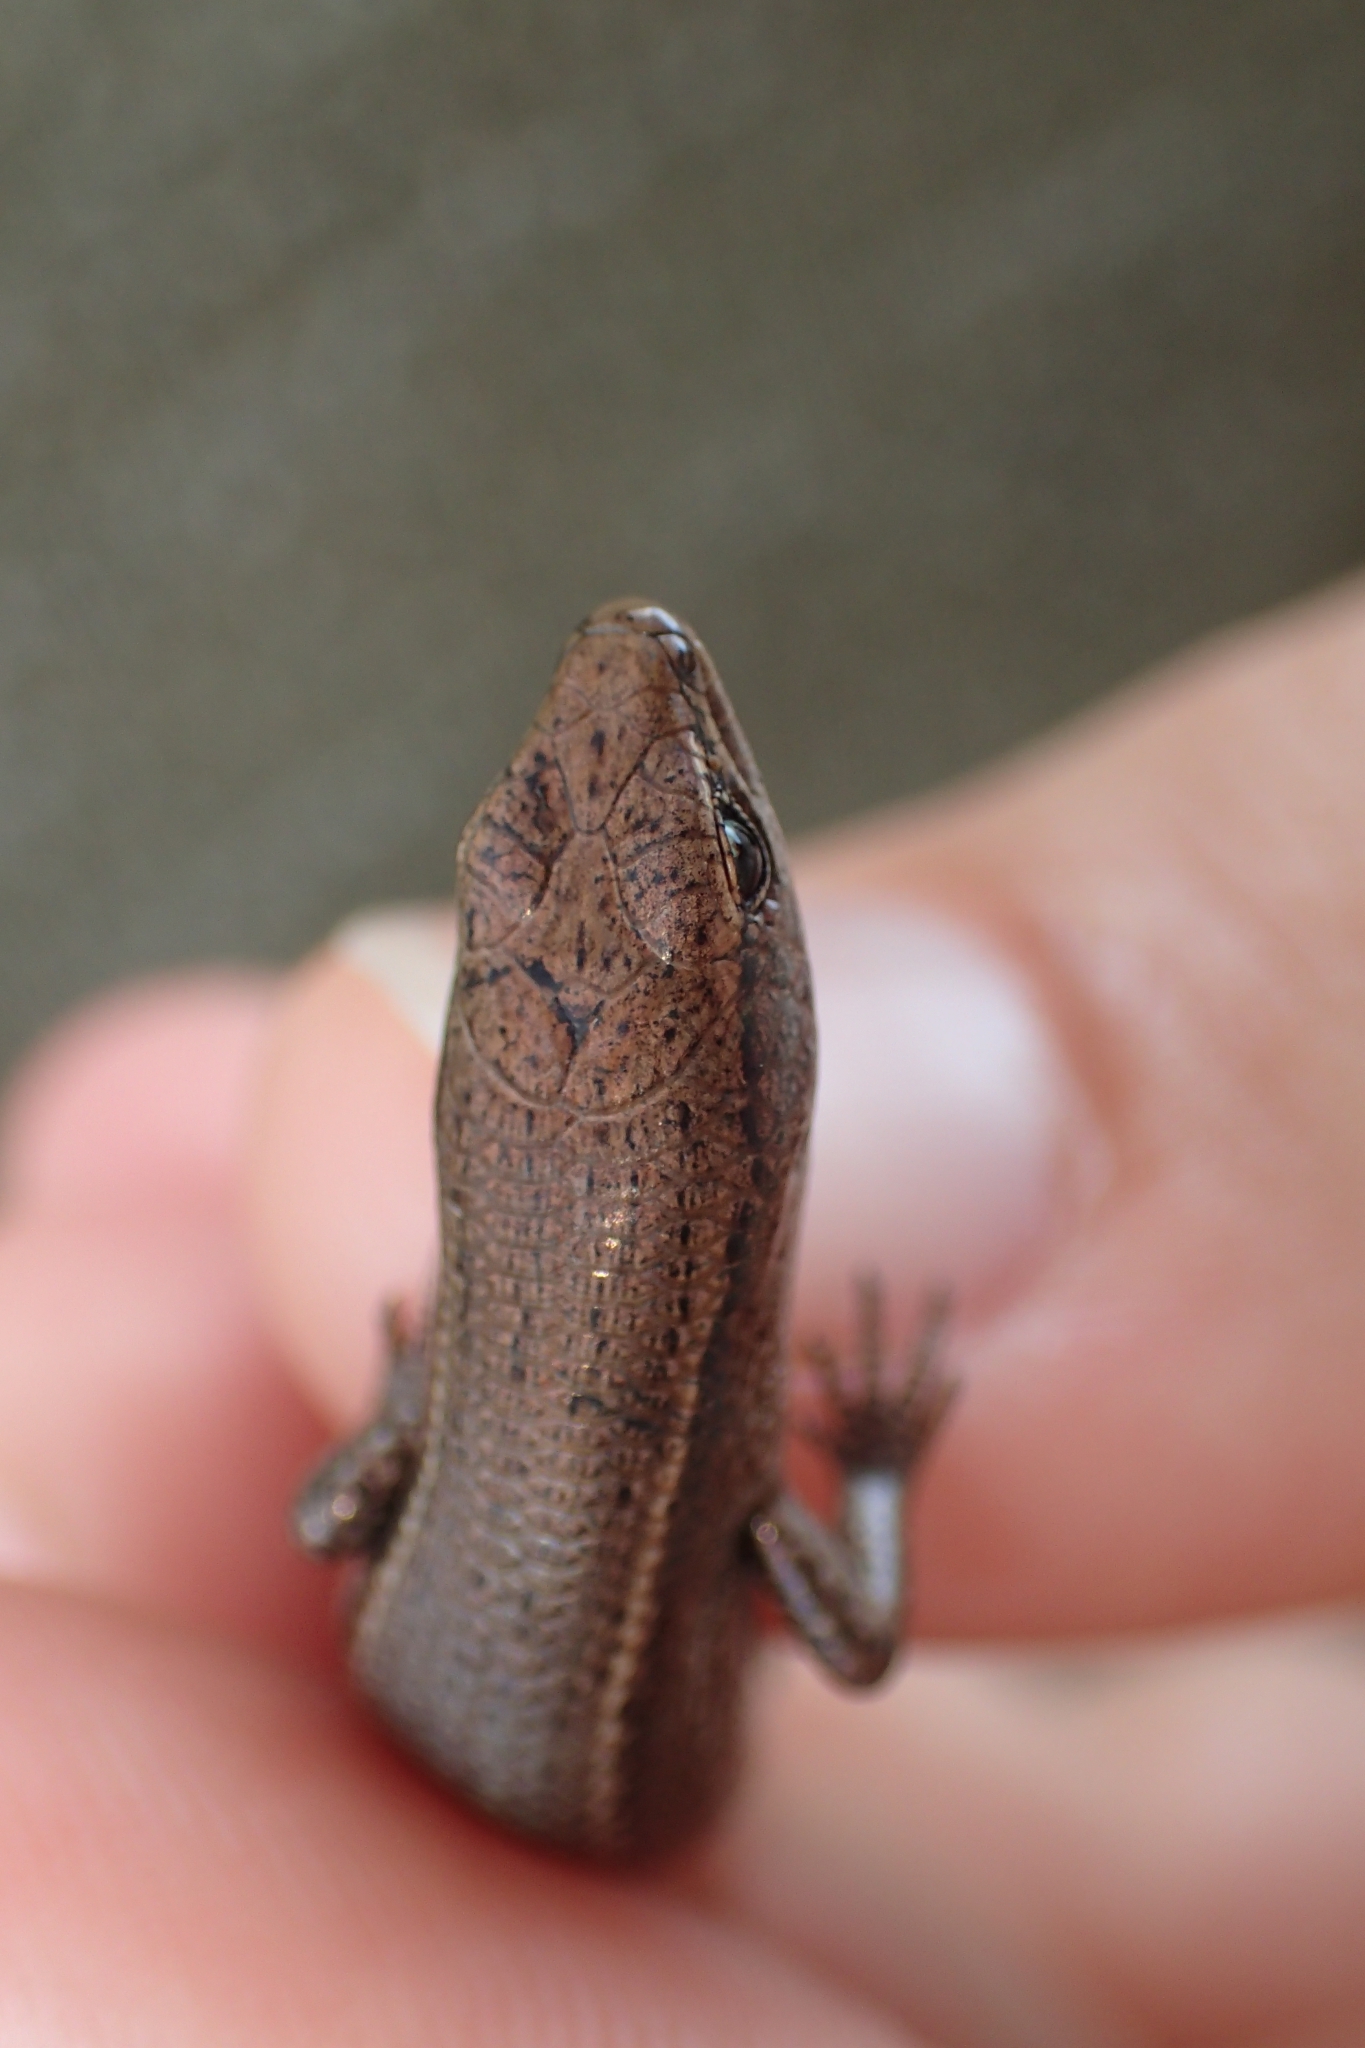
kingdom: Animalia
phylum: Chordata
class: Squamata
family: Scincidae
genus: Lampropholis
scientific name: Lampropholis delicata
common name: Plague skink
